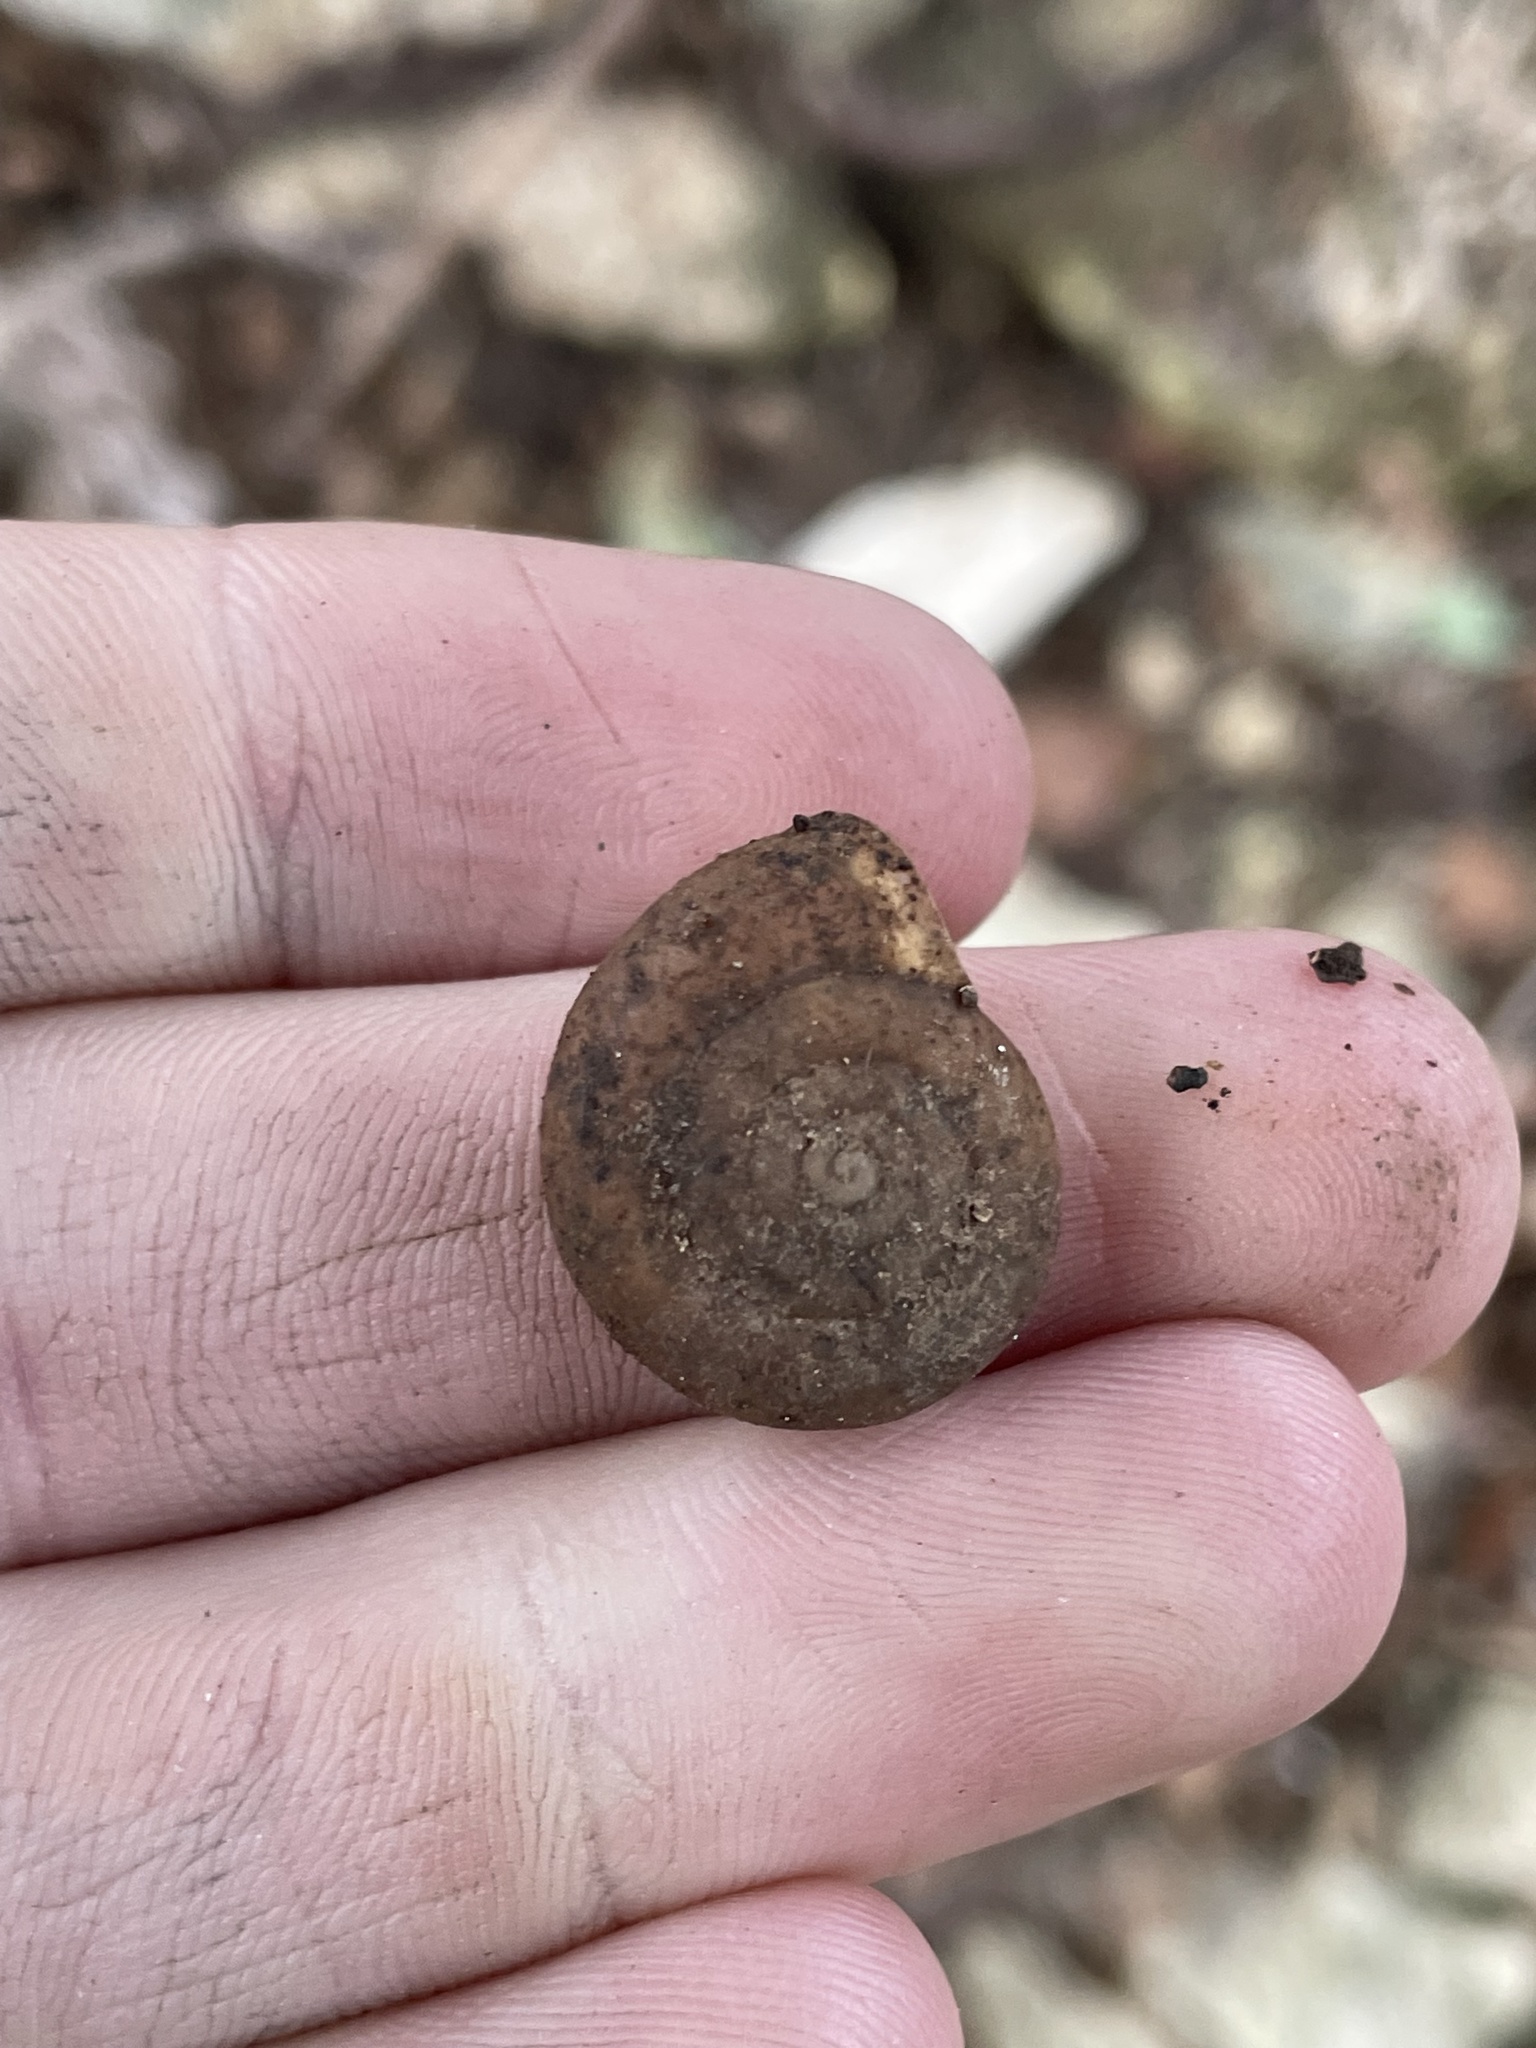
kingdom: Animalia
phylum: Mollusca
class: Gastropoda
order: Stylommatophora
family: Polygyridae
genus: Mesodon
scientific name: Mesodon thyroidus
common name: White-lip globe
